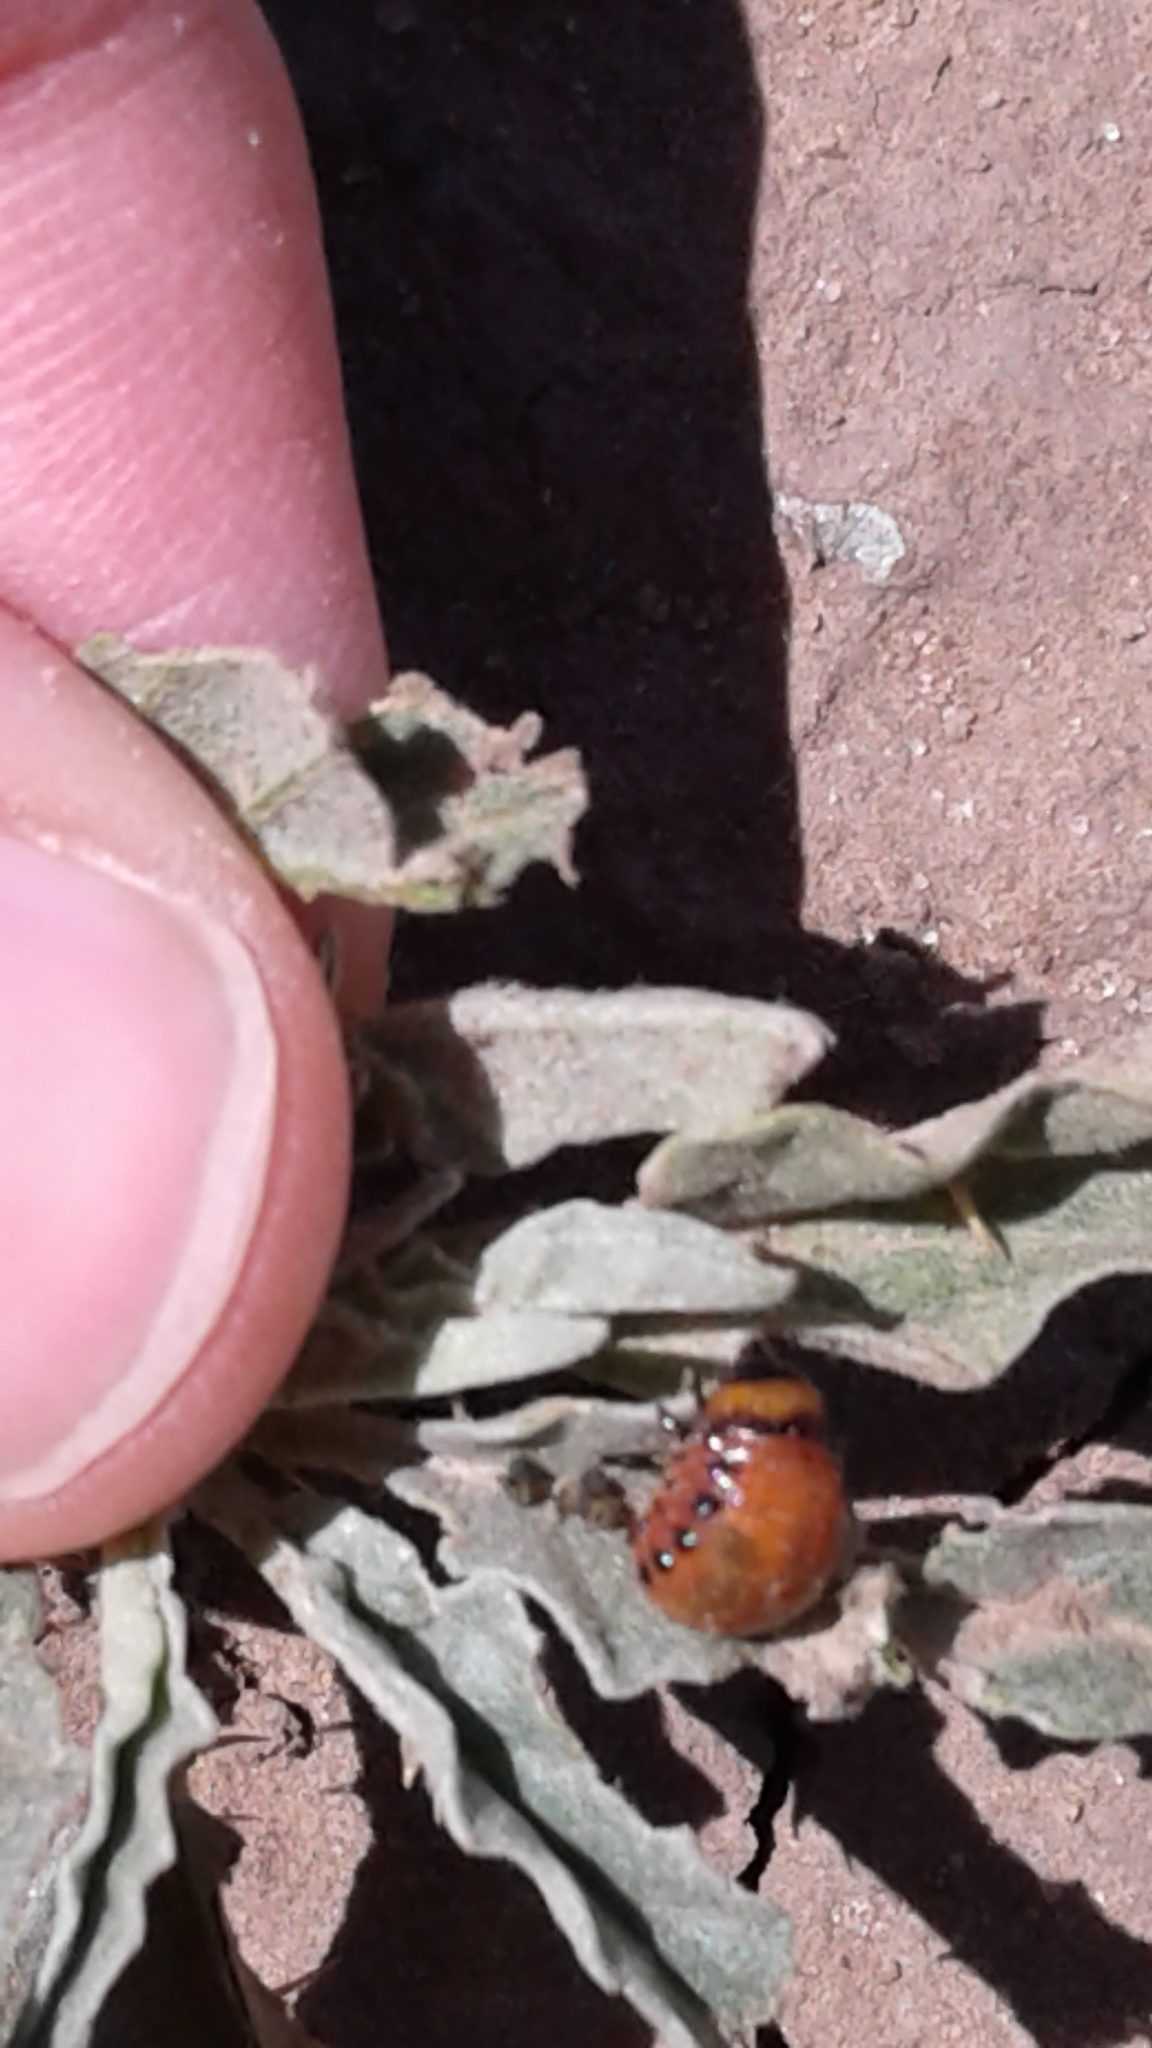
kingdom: Animalia
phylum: Arthropoda
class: Insecta
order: Coleoptera
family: Chrysomelidae
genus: Leptinotarsa
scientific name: Leptinotarsa decemlineata
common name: Colorado potato beetle
